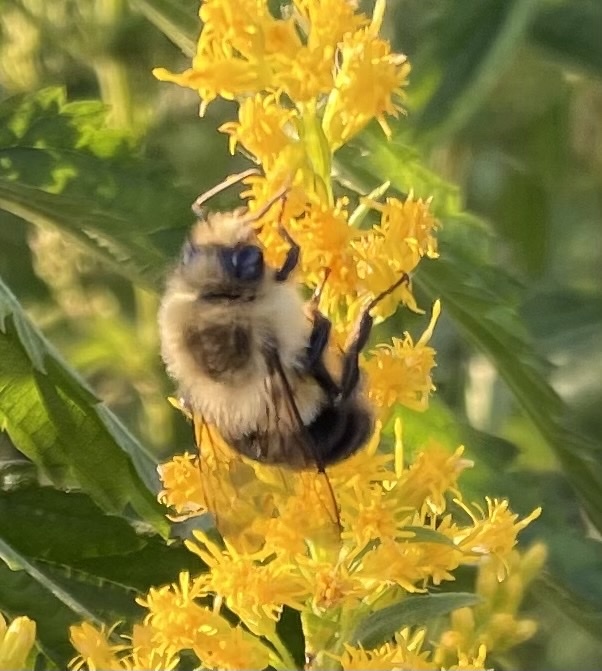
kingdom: Animalia
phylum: Arthropoda
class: Insecta
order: Hymenoptera
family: Apidae
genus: Bombus
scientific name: Bombus impatiens
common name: Common eastern bumble bee
